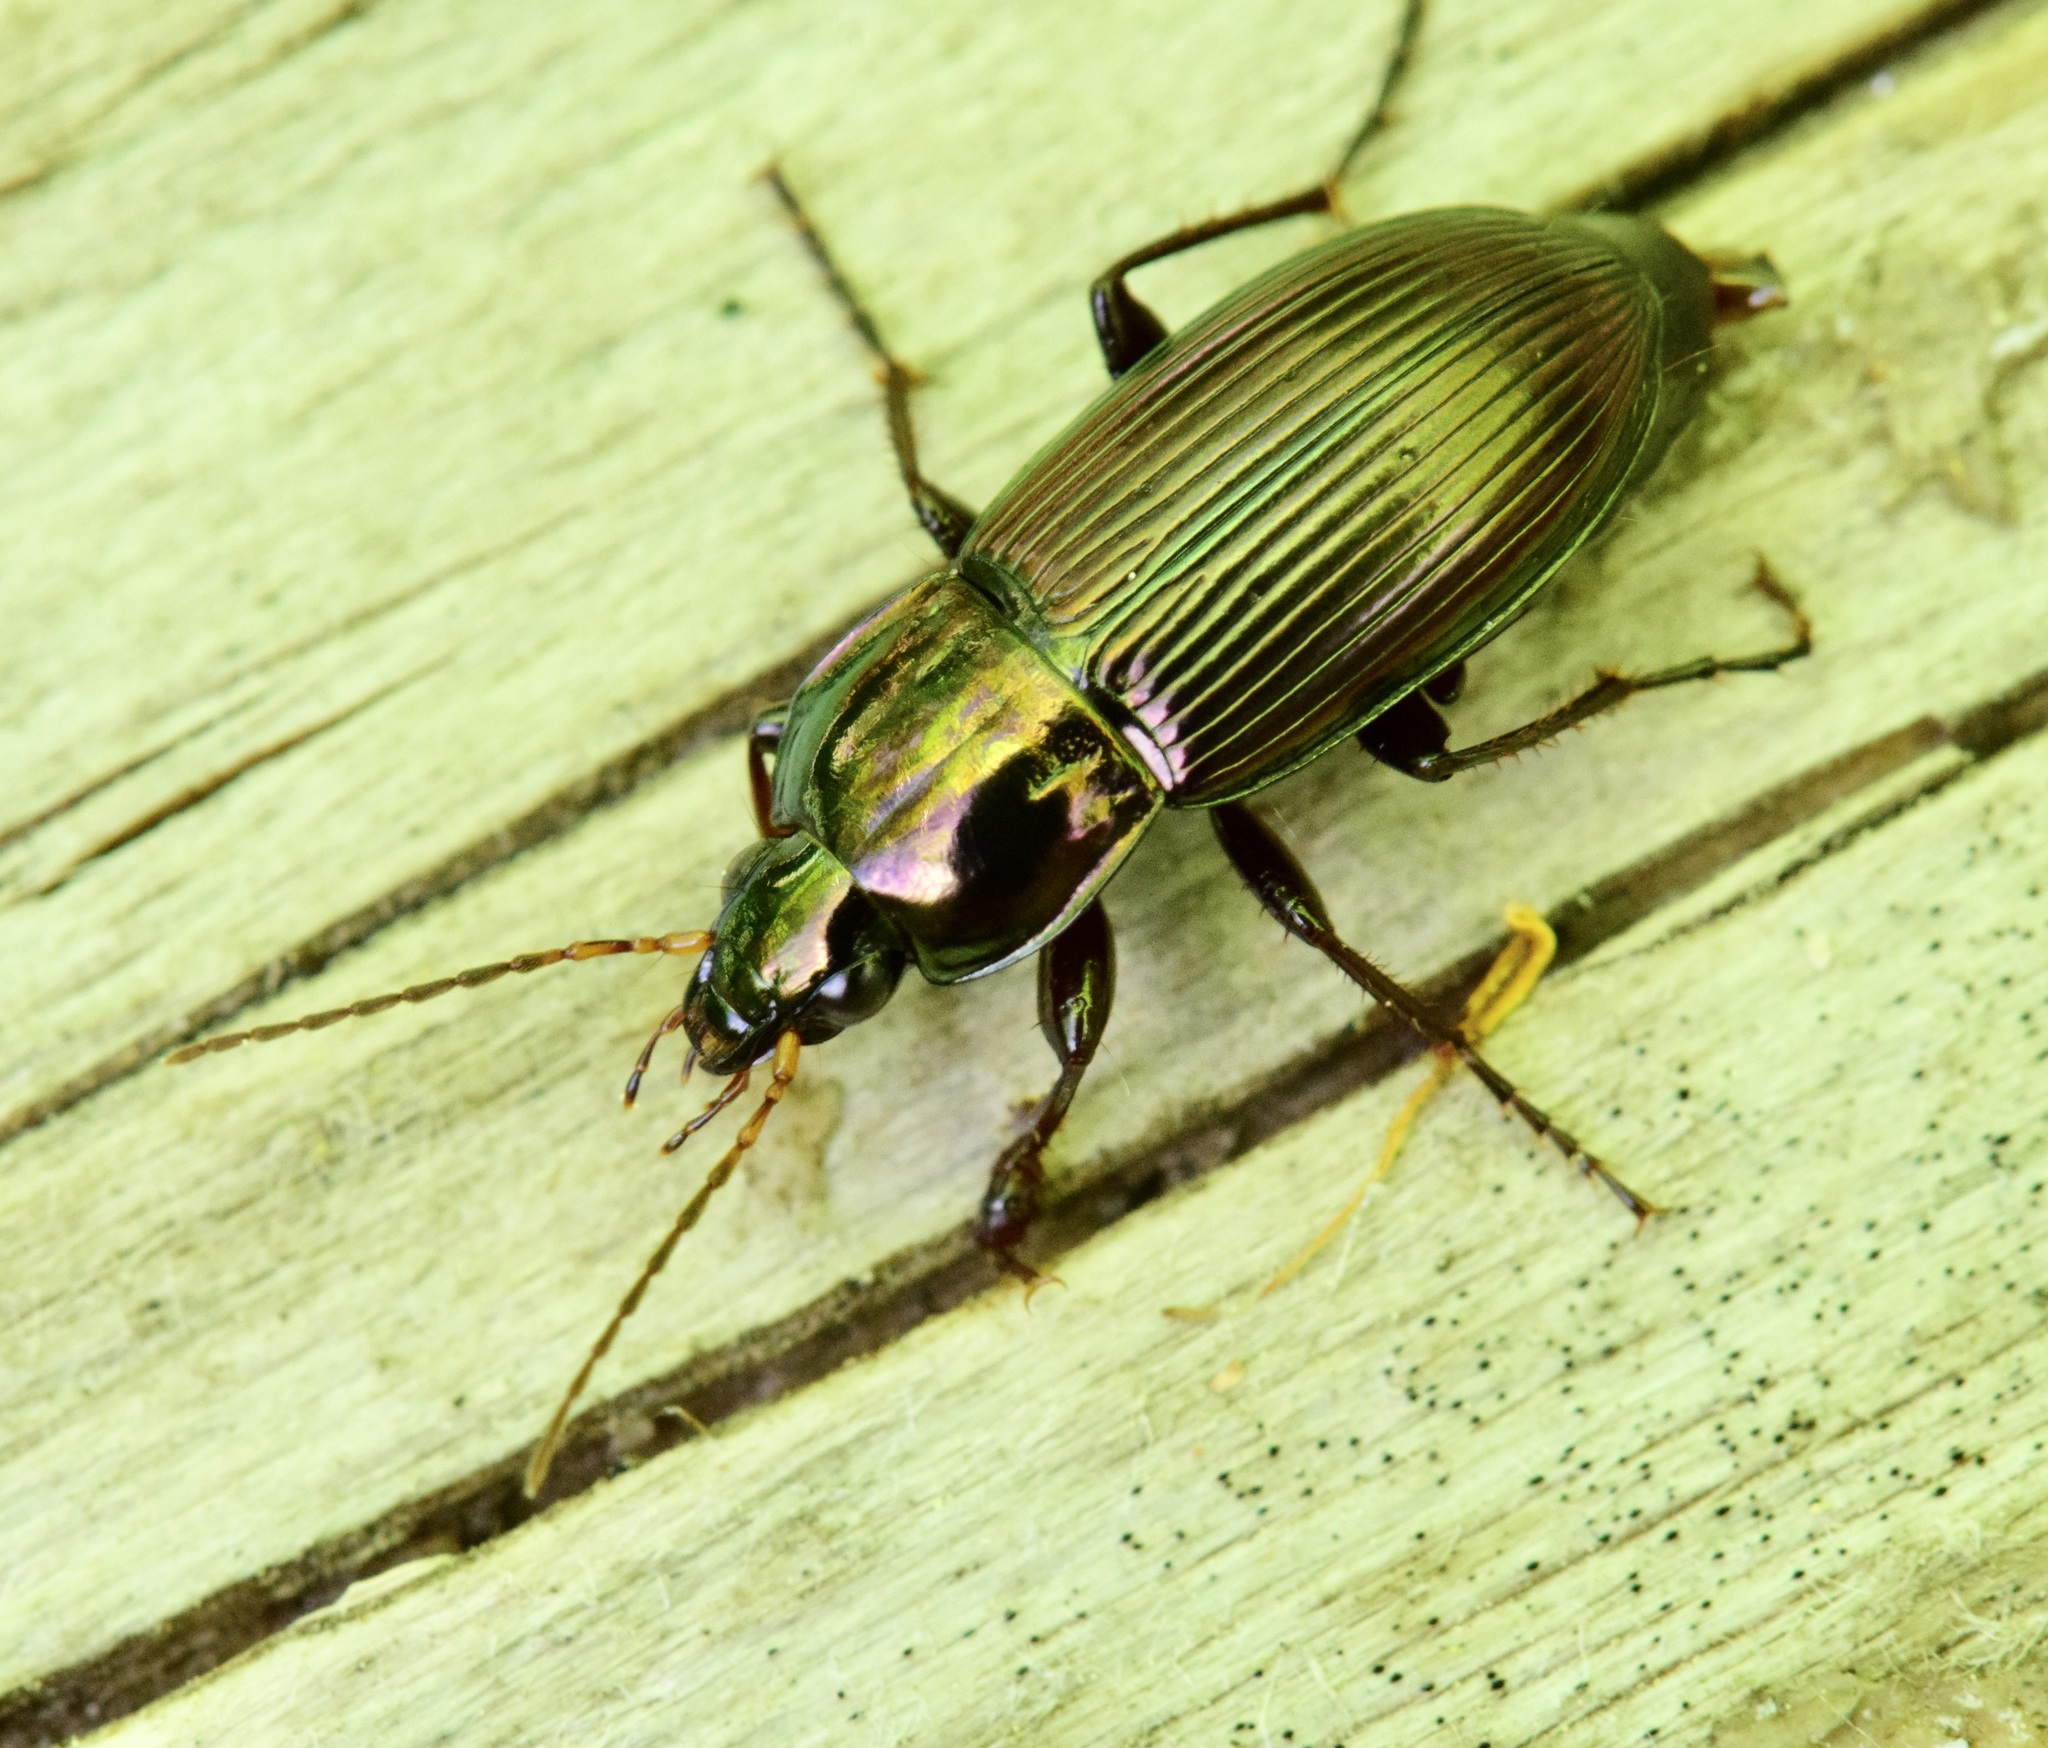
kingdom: Animalia
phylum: Arthropoda
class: Insecta
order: Coleoptera
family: Carabidae
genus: Poecilus
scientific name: Poecilus chalcites
